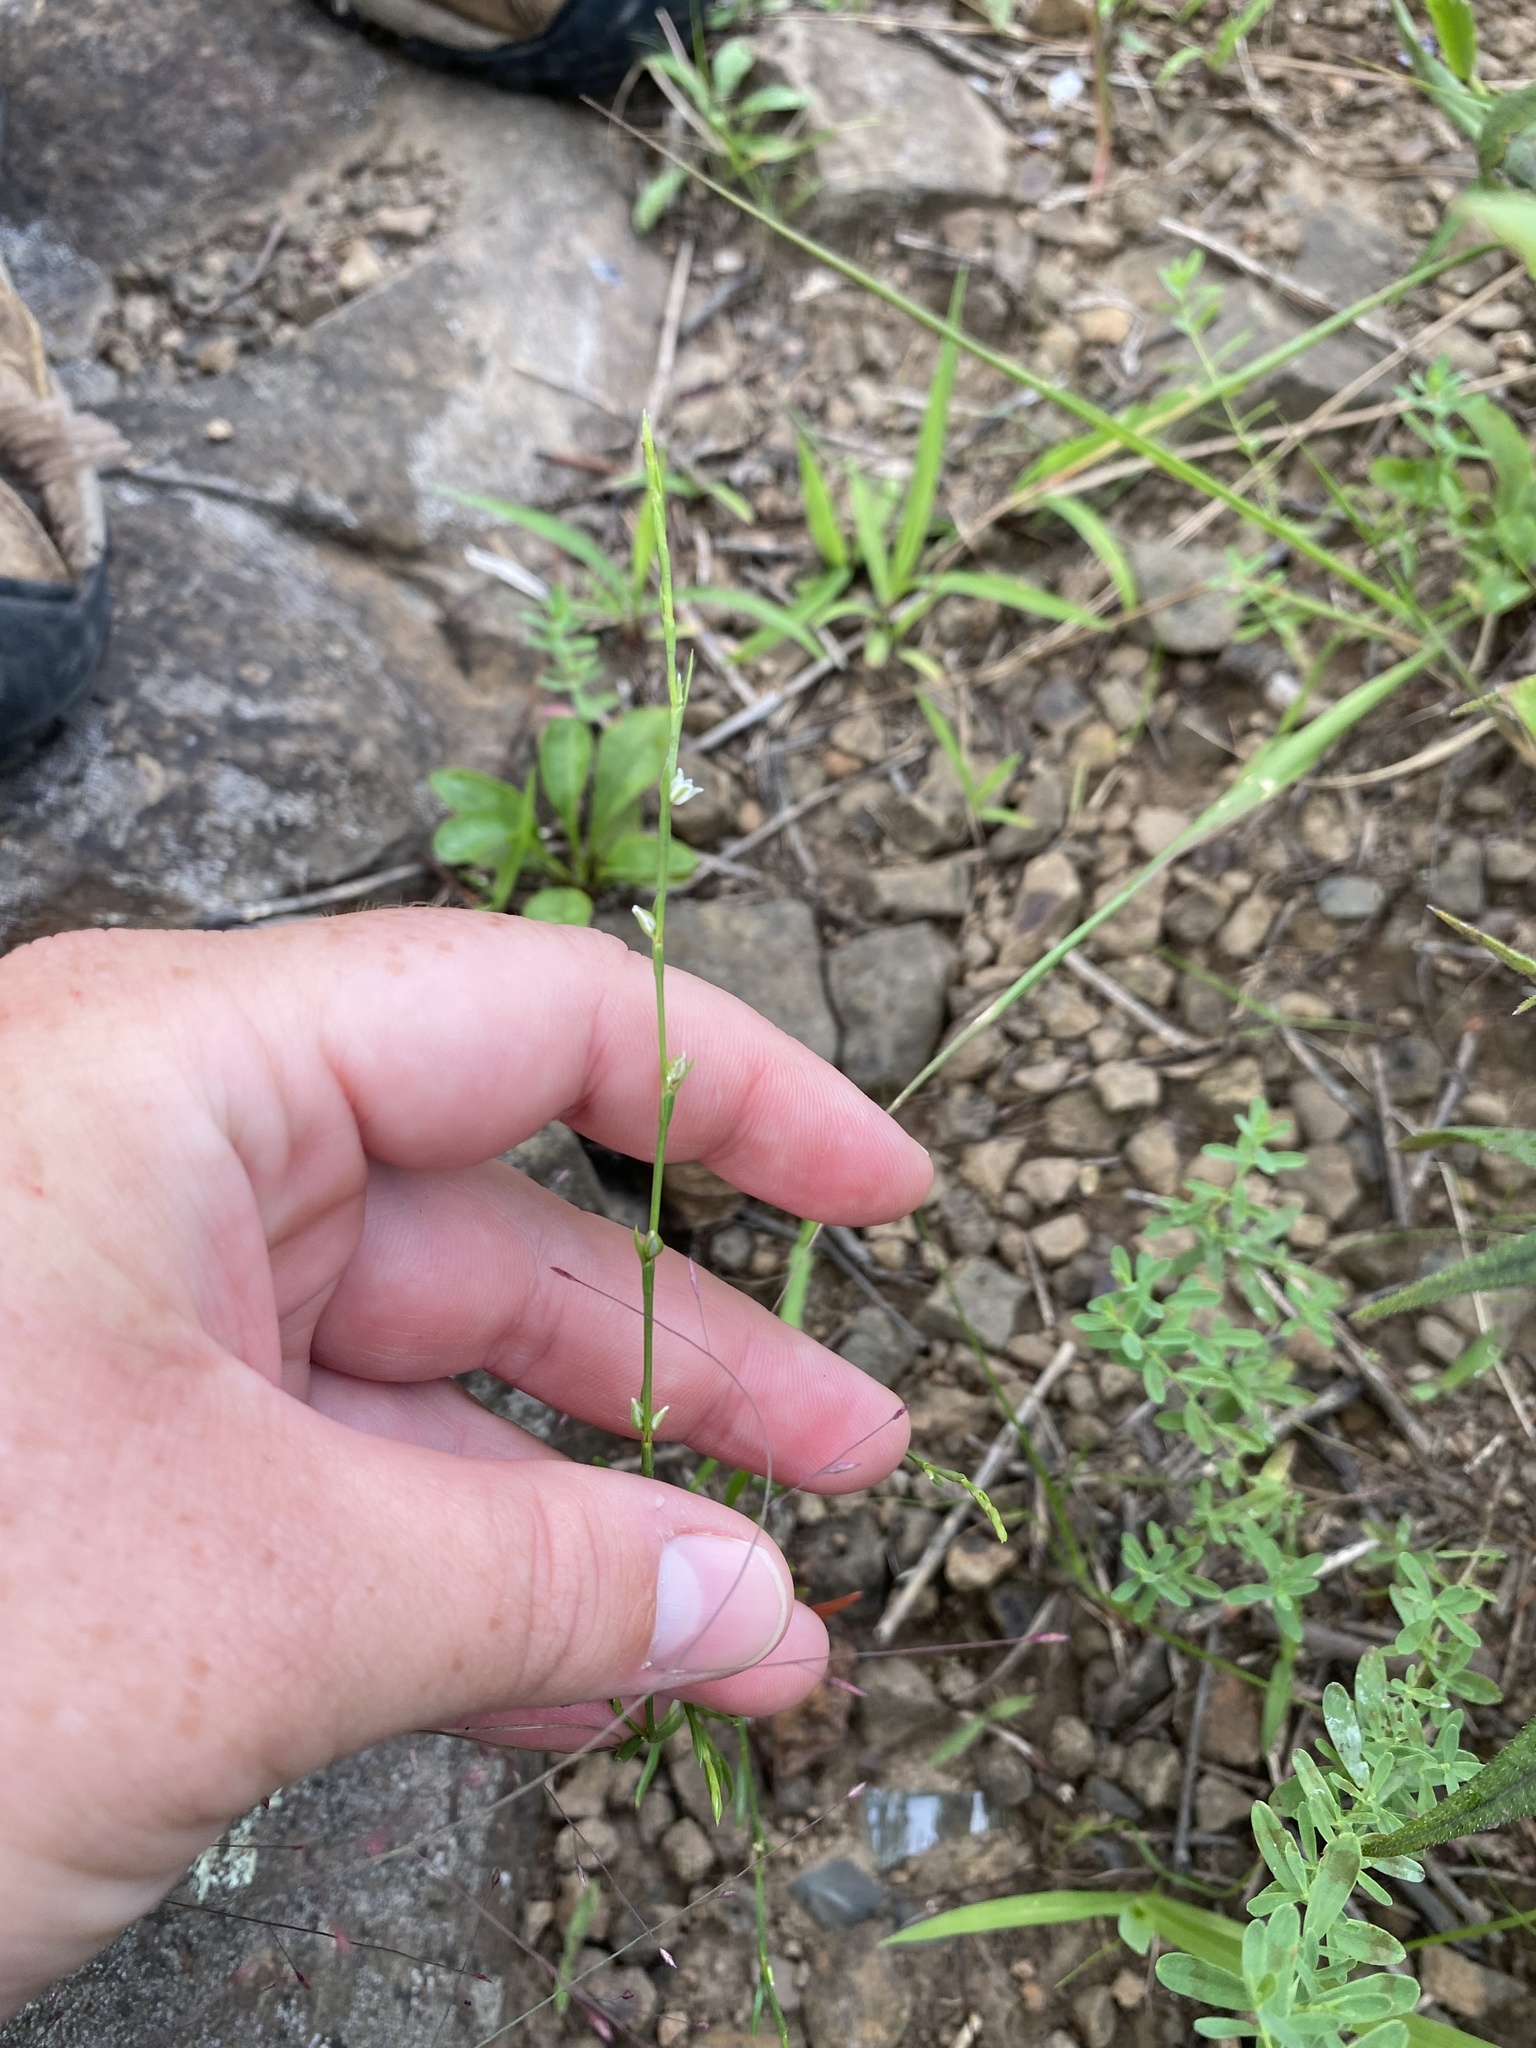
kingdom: Plantae
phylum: Tracheophyta
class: Magnoliopsida
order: Caryophyllales
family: Polygonaceae
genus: Polygonum
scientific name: Polygonum tenue
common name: Pleat-leaved knotweed
